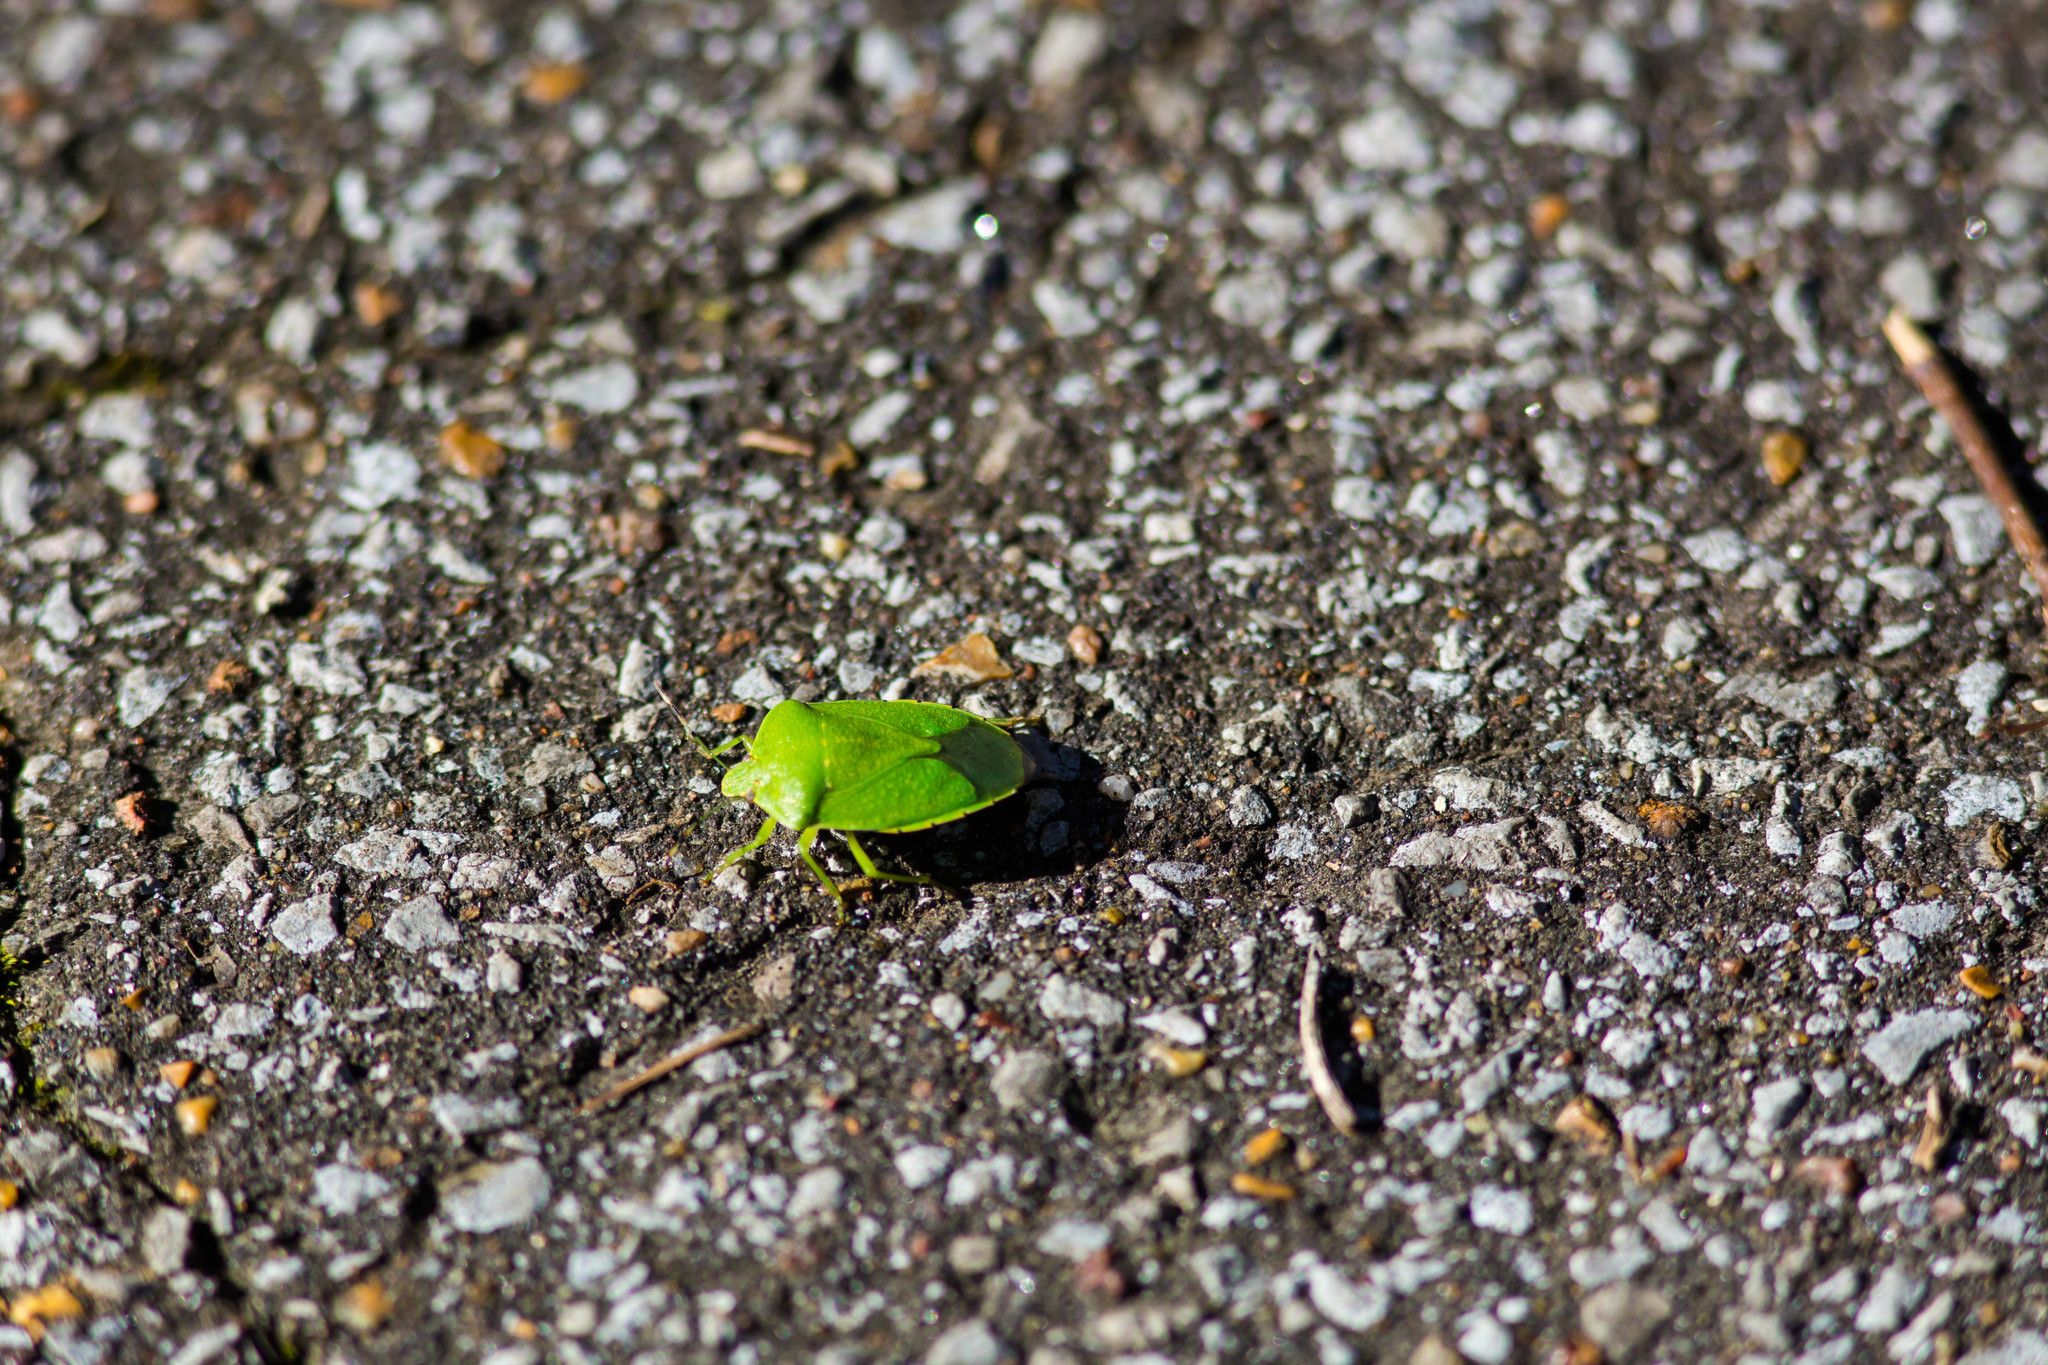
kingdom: Animalia
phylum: Arthropoda
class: Insecta
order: Hemiptera
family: Pentatomidae
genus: Chinavia
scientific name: Chinavia hilaris
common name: Green stink bug
